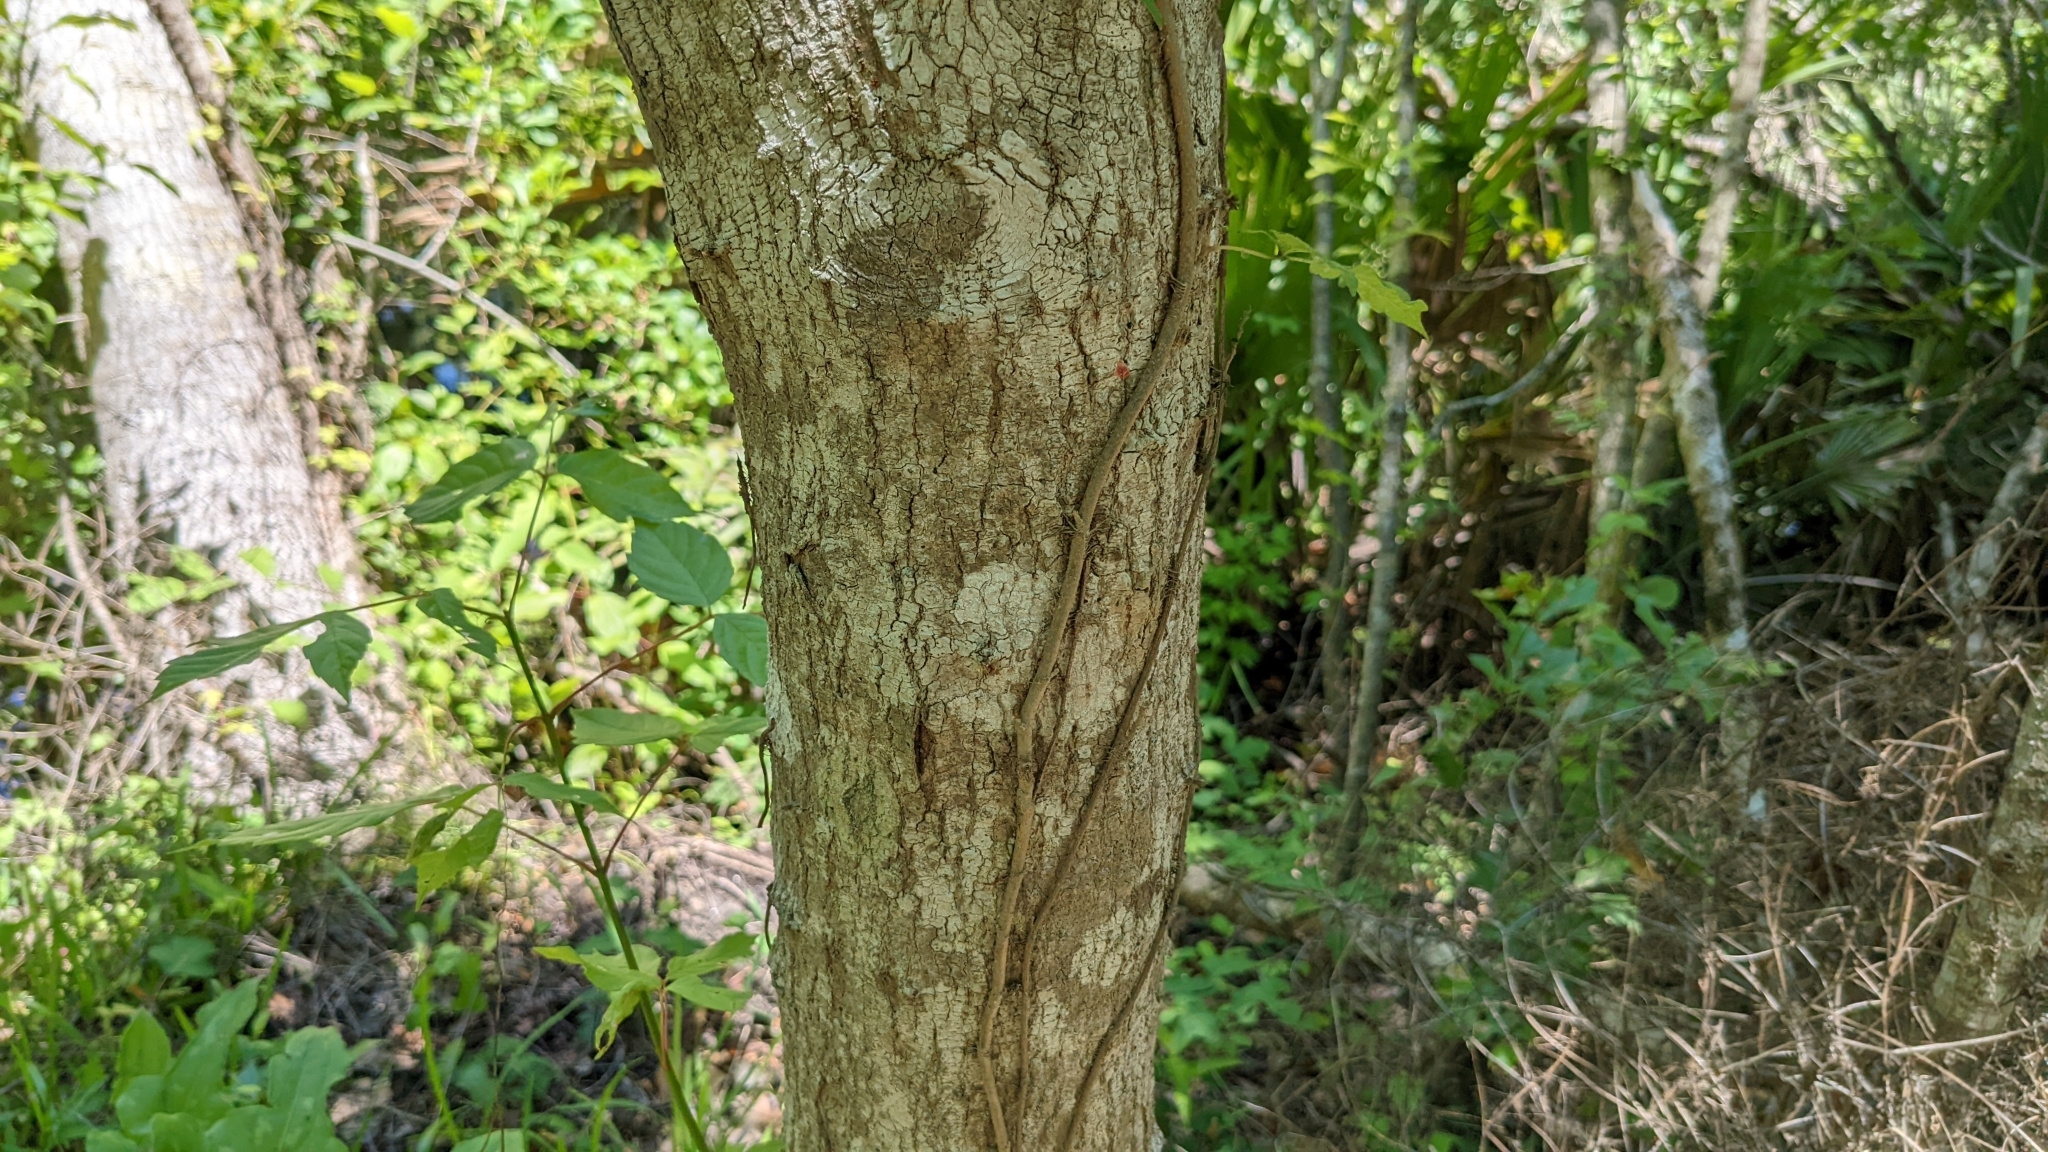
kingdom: Plantae
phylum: Tracheophyta
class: Magnoliopsida
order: Sapindales
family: Sapindaceae
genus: Acer
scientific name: Acer negundo
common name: Ashleaf maple
